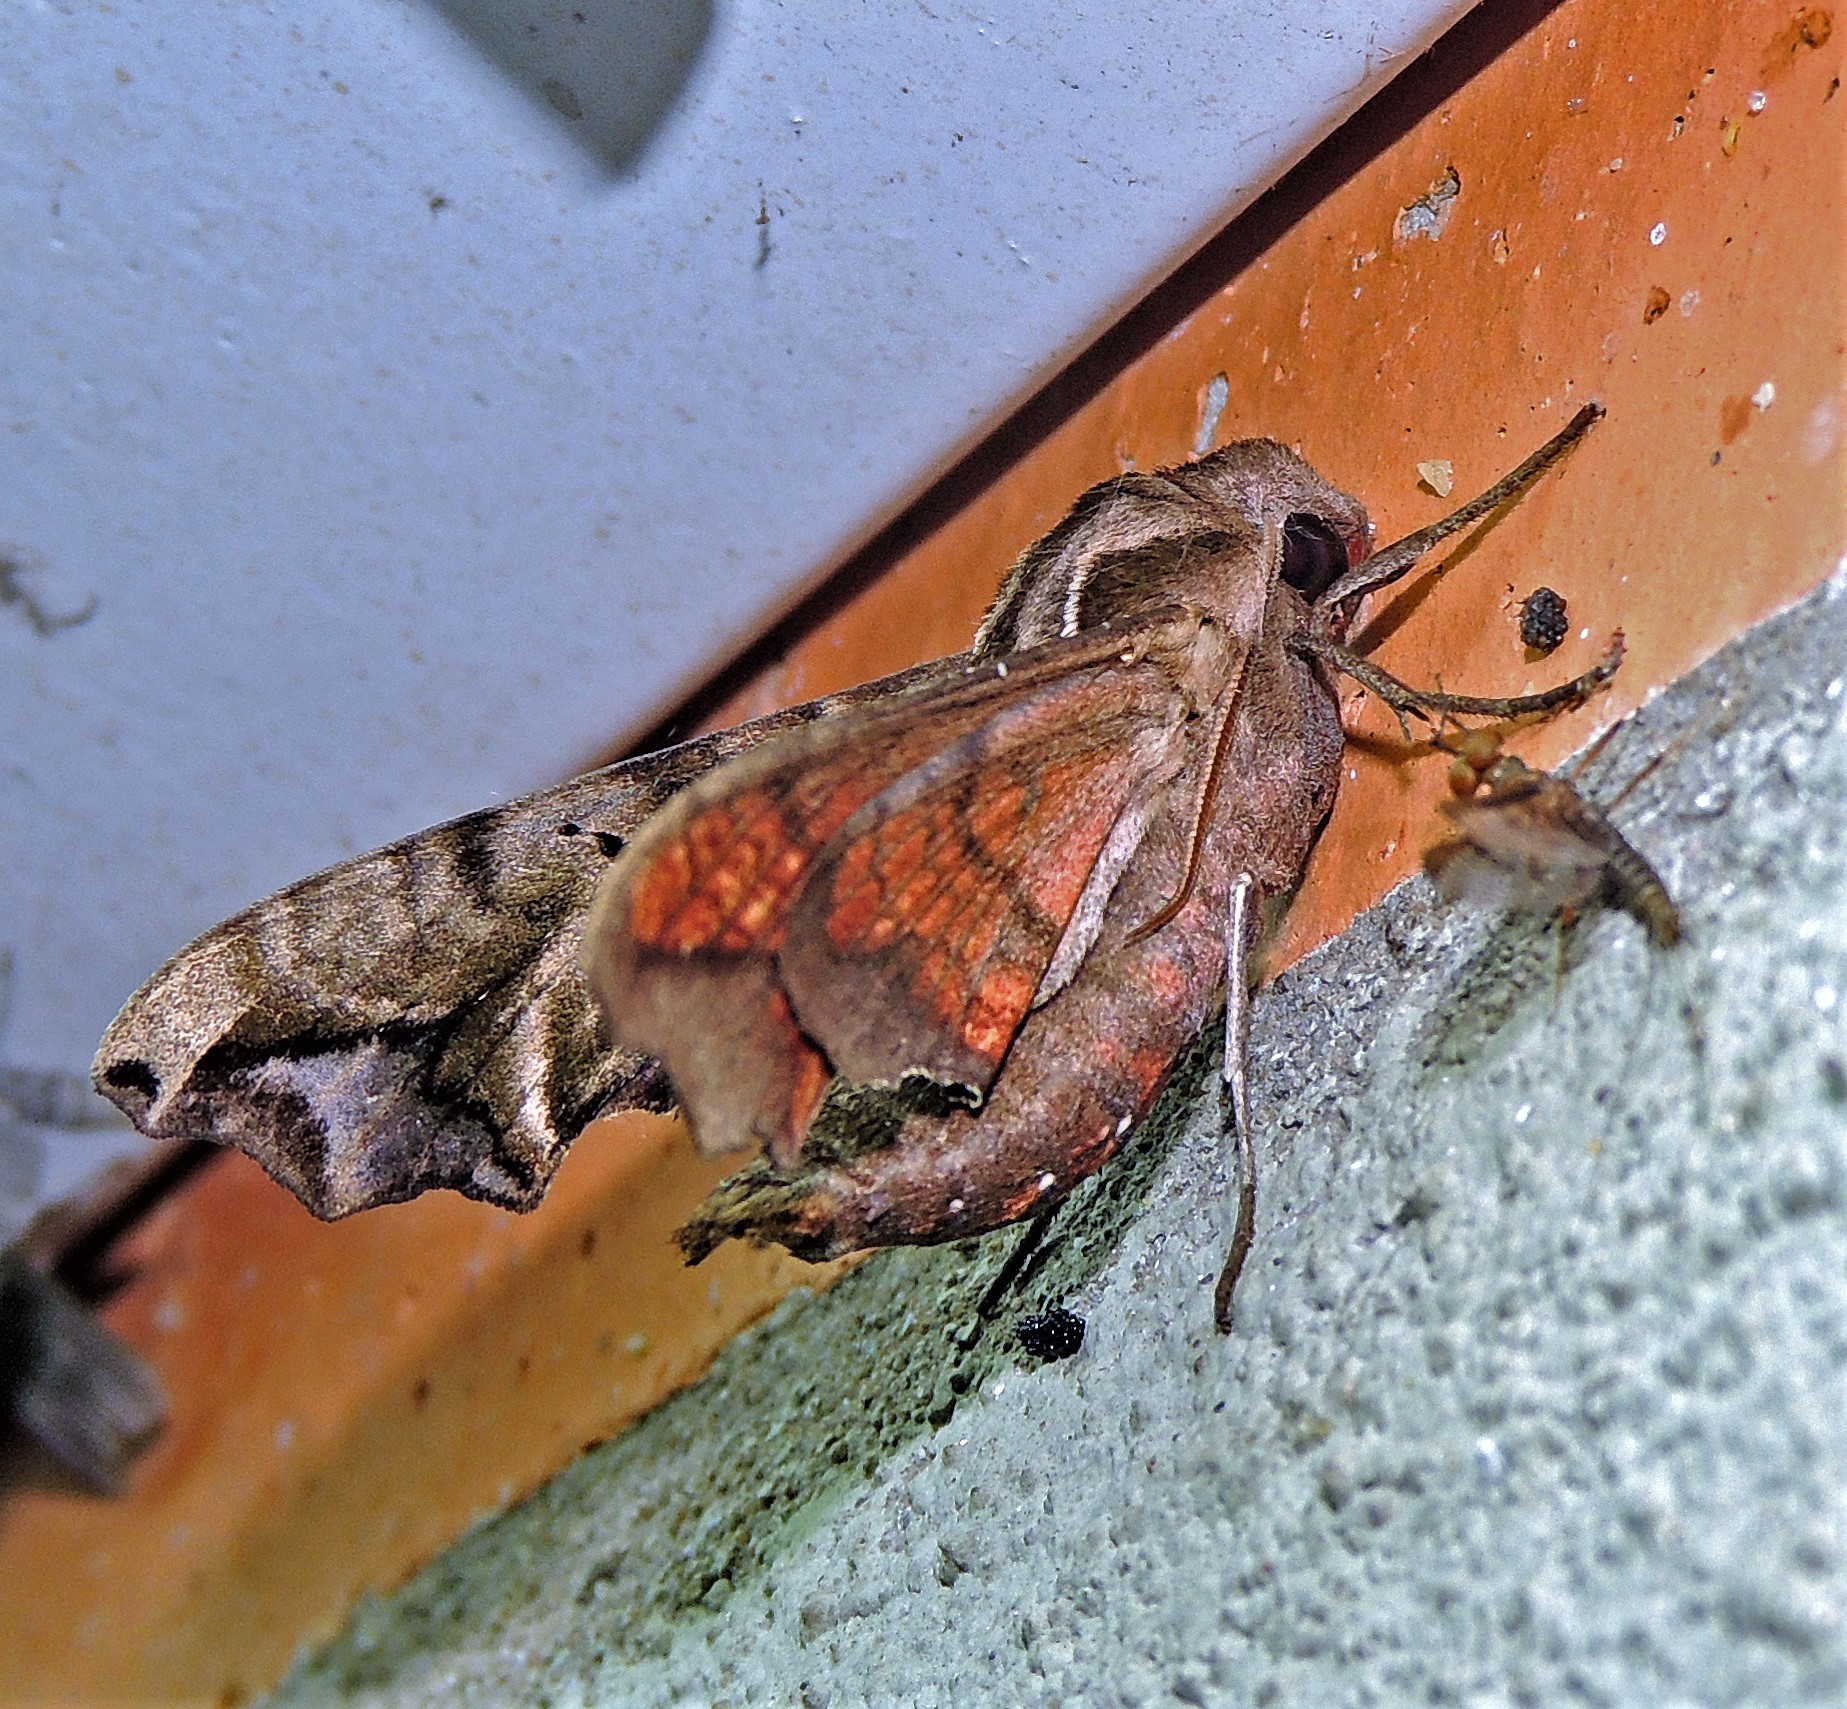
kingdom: Animalia
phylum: Arthropoda
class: Insecta
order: Lepidoptera
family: Sphingidae
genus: Nyceryx
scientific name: Nyceryx alophus
